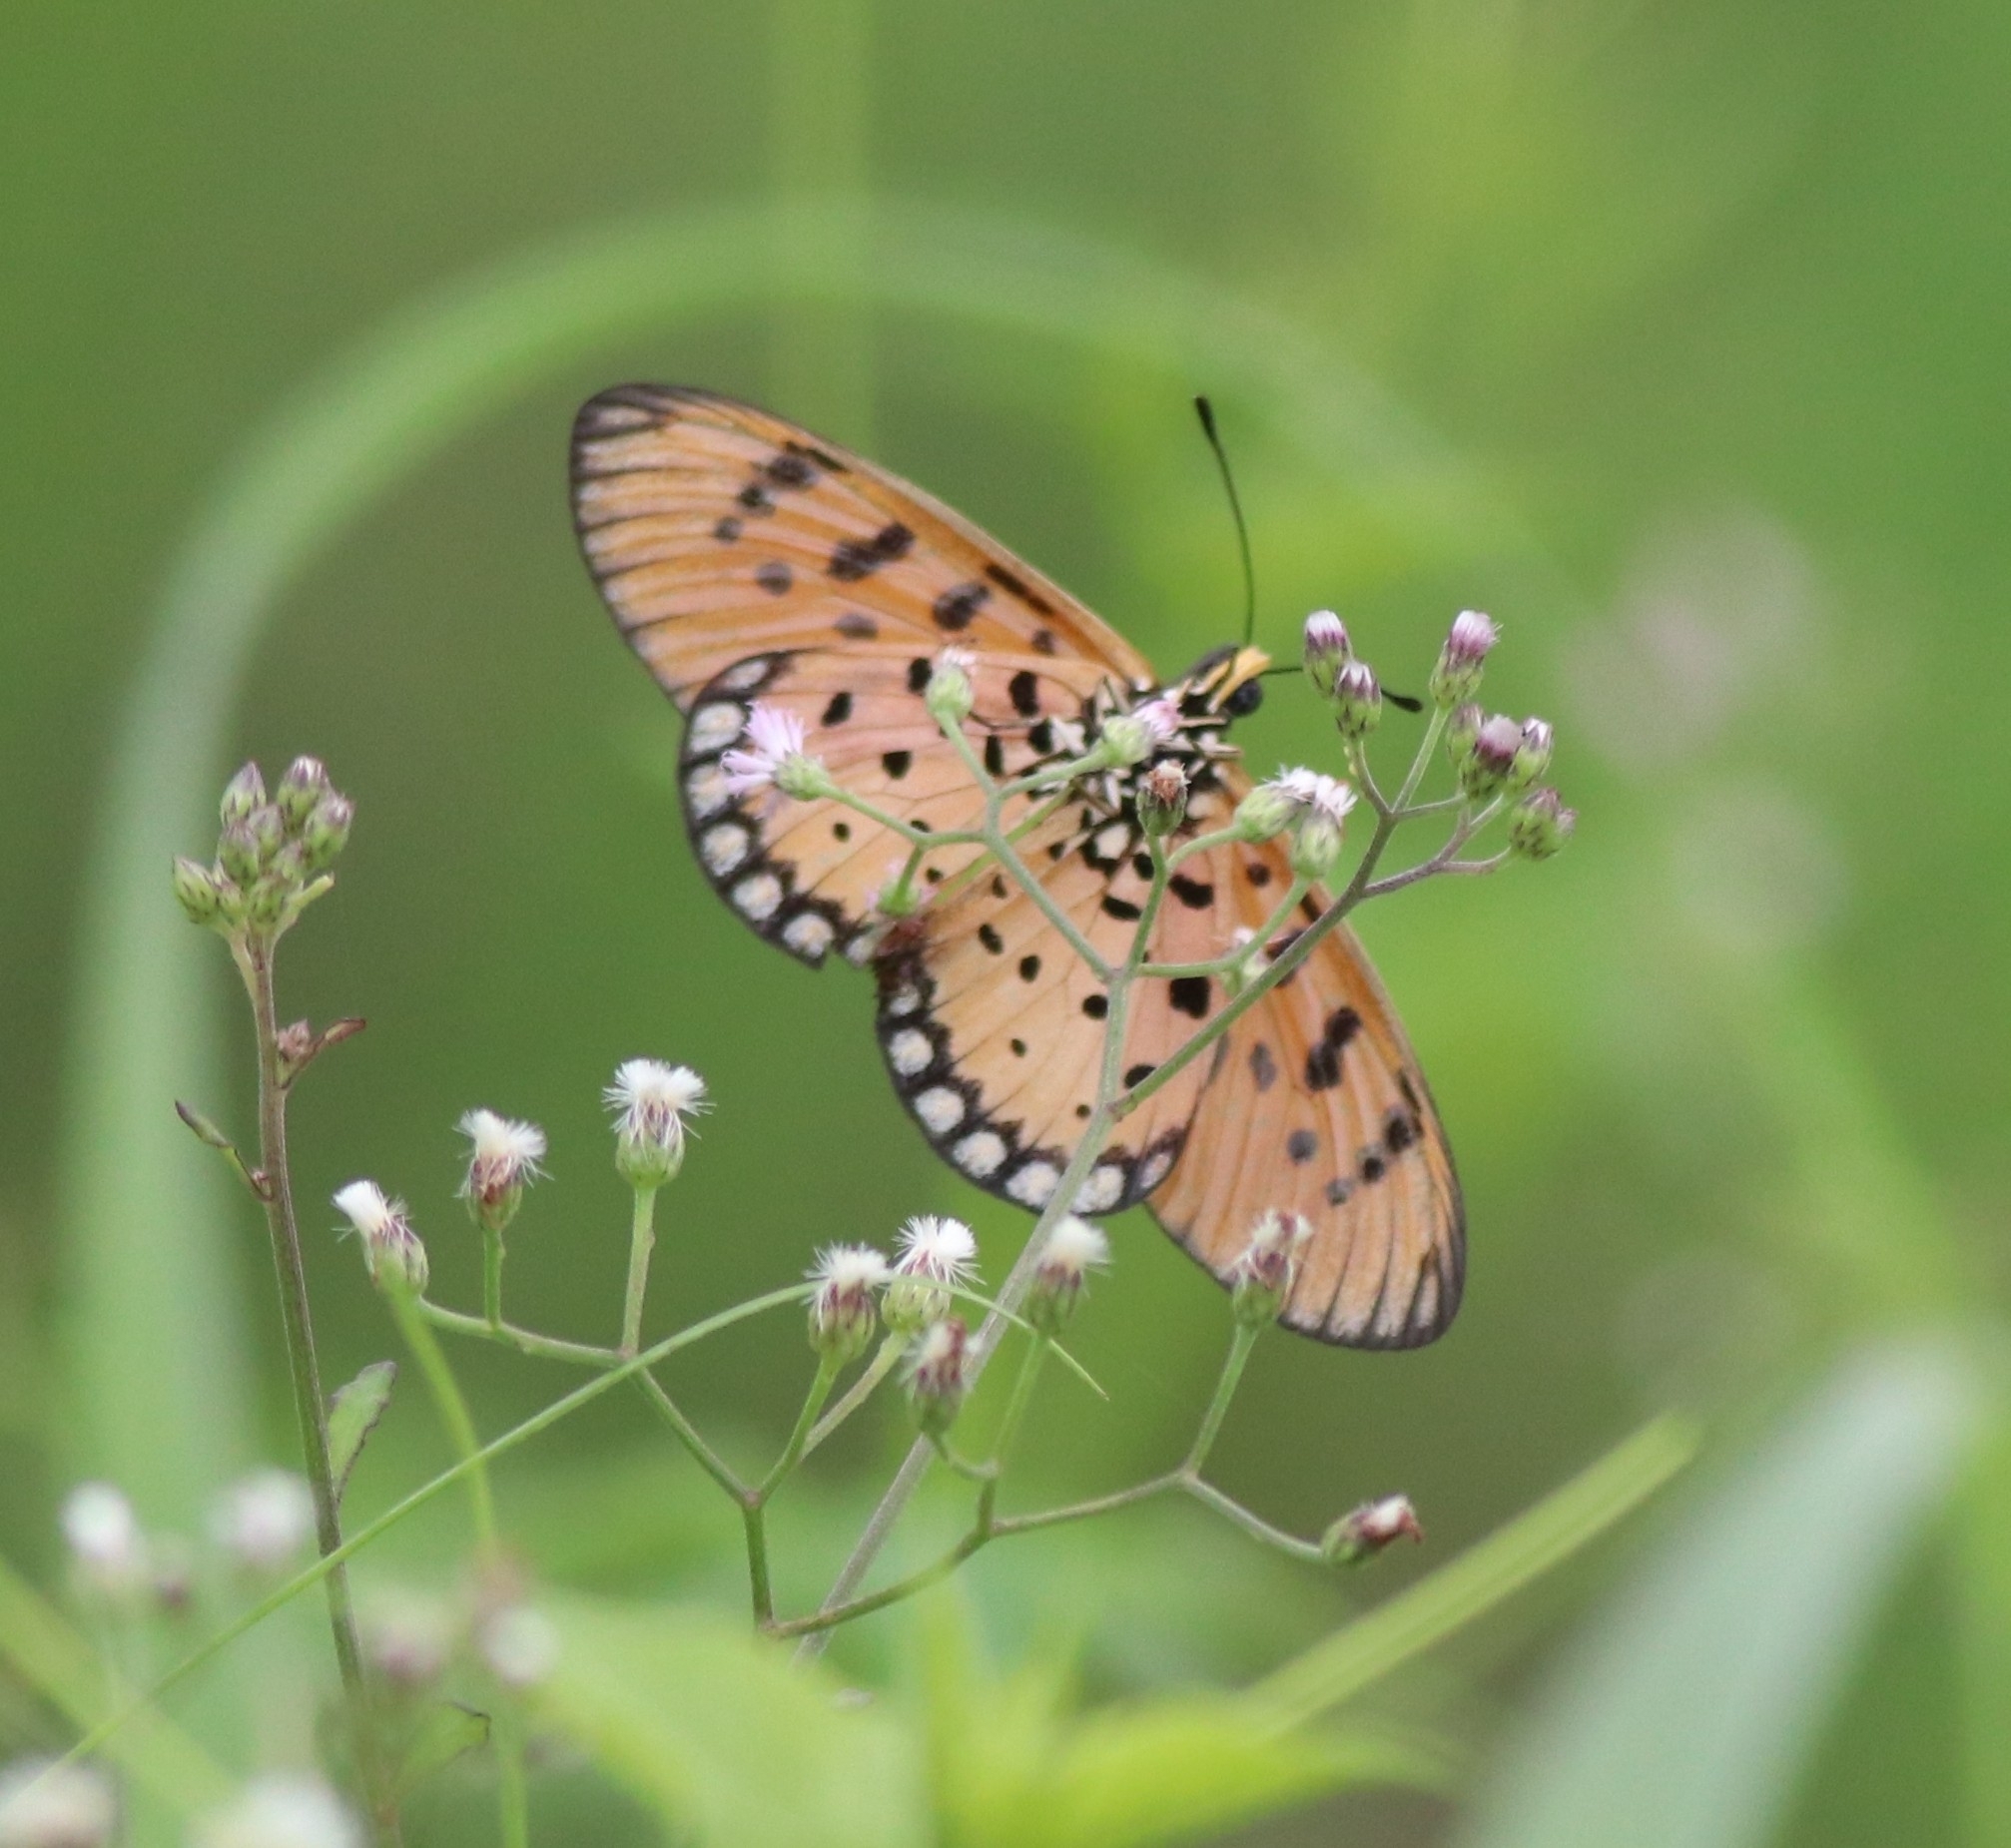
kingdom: Animalia
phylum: Arthropoda
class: Insecta
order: Lepidoptera
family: Nymphalidae
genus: Acraea
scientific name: Acraea terpsicore
